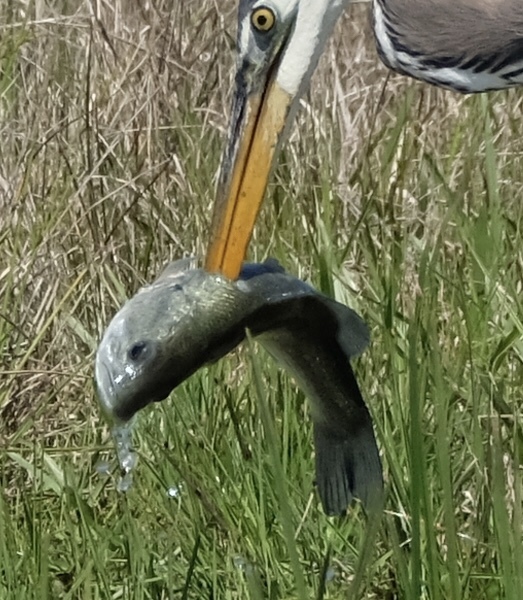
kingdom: Animalia
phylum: Chordata
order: Perciformes
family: Centrarchidae
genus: Micropterus
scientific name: Micropterus
